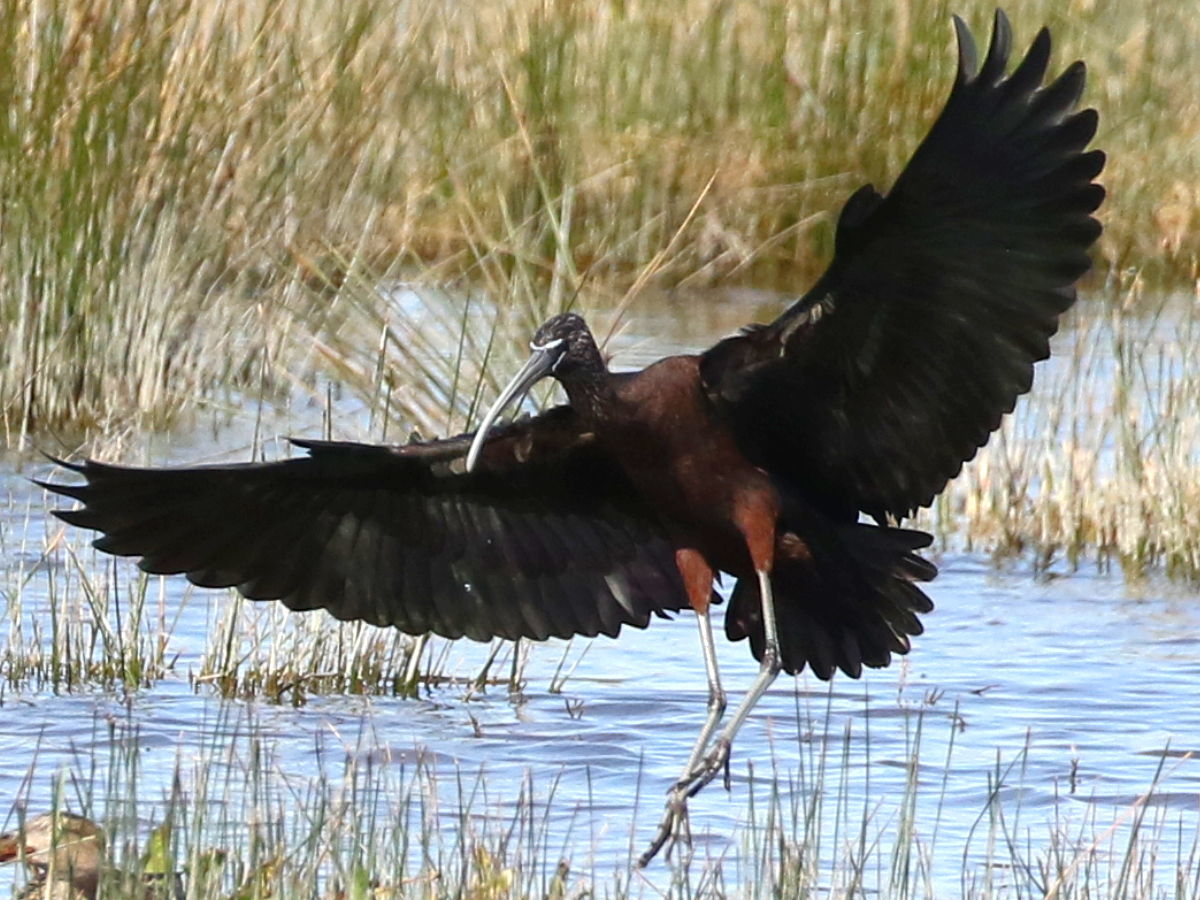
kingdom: Animalia
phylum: Chordata
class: Aves
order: Pelecaniformes
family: Threskiornithidae
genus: Plegadis
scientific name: Plegadis falcinellus
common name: Glossy ibis
